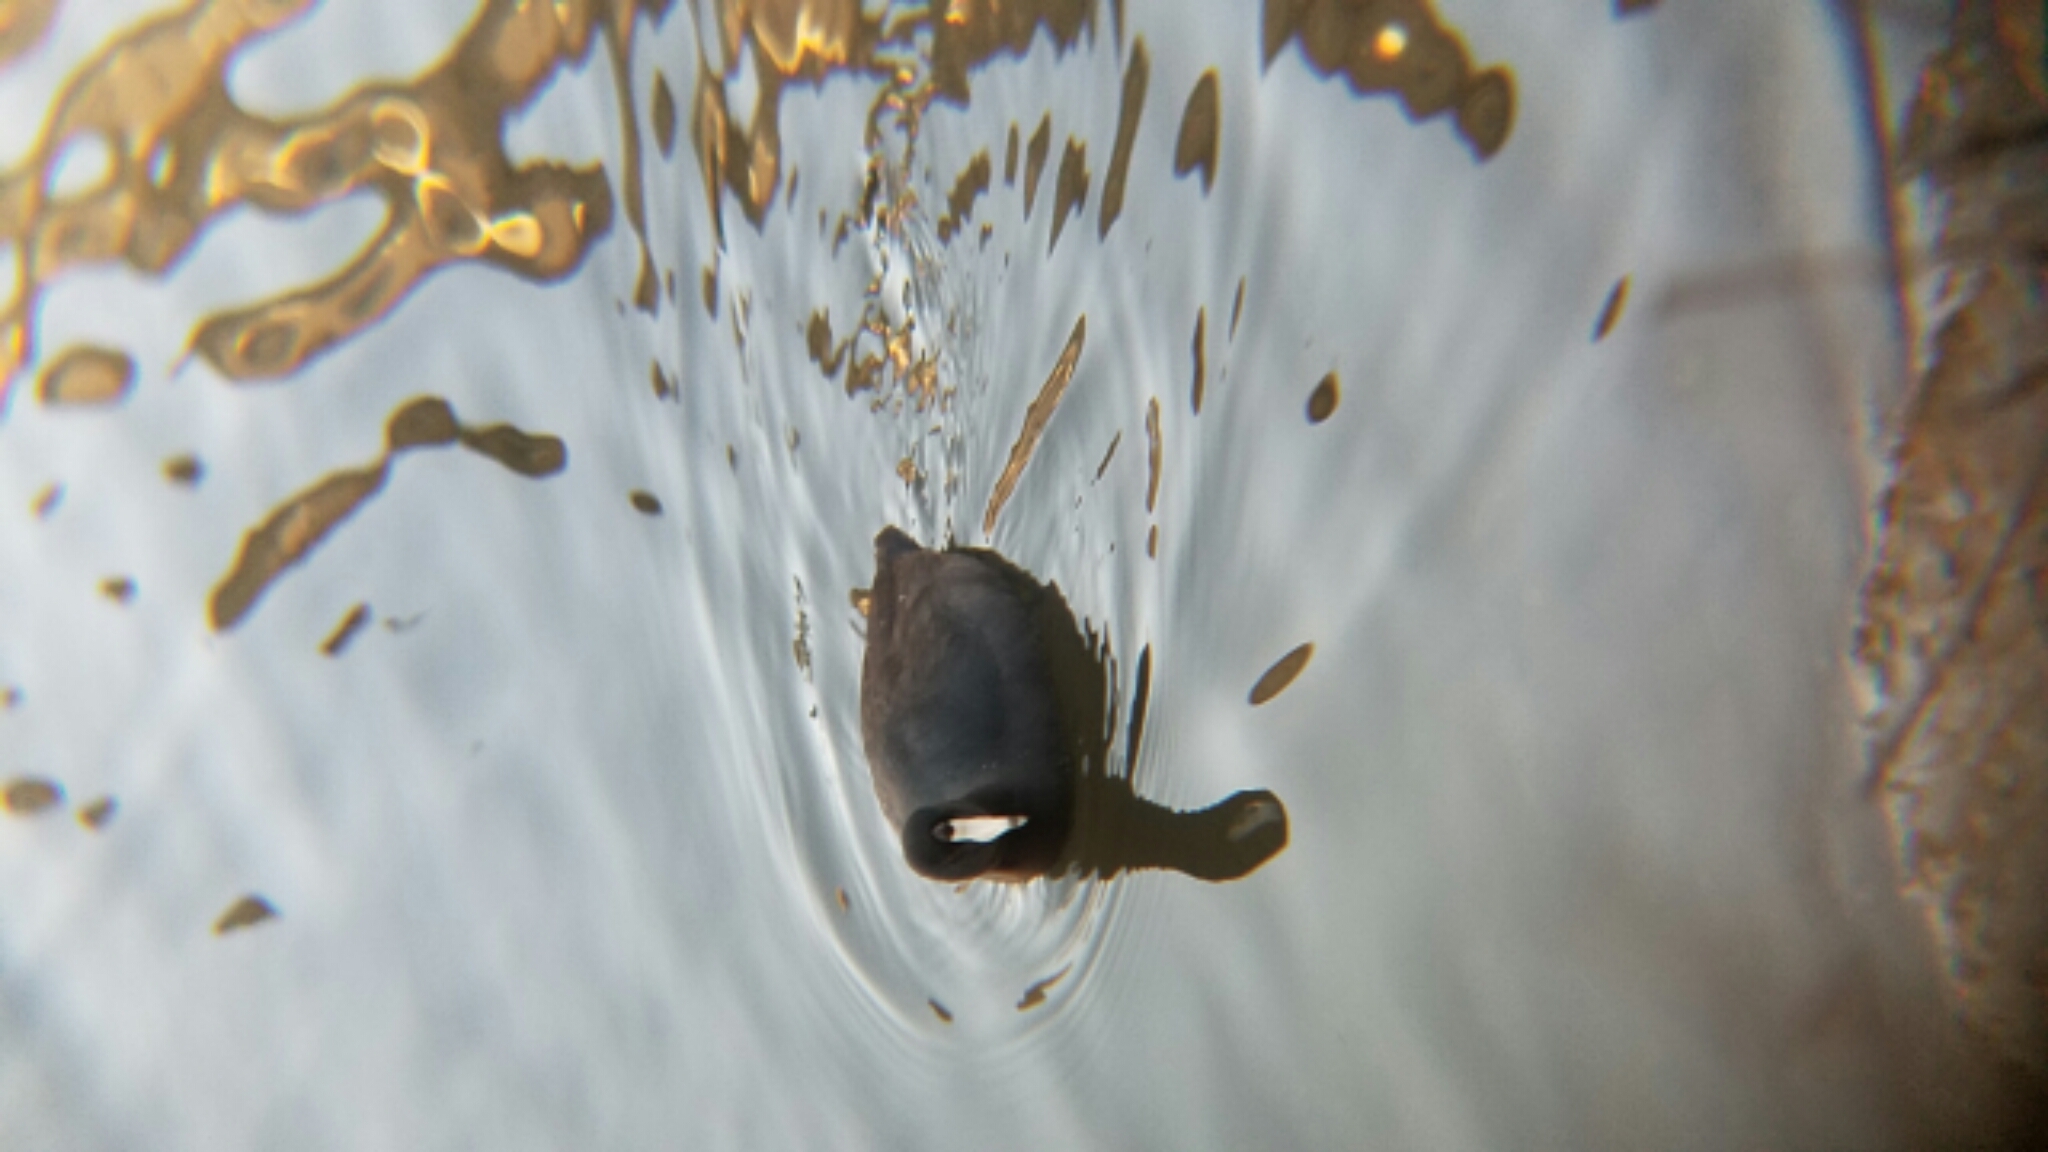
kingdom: Animalia
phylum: Chordata
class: Aves
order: Gruiformes
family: Rallidae
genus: Fulica
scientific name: Fulica americana
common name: American coot
